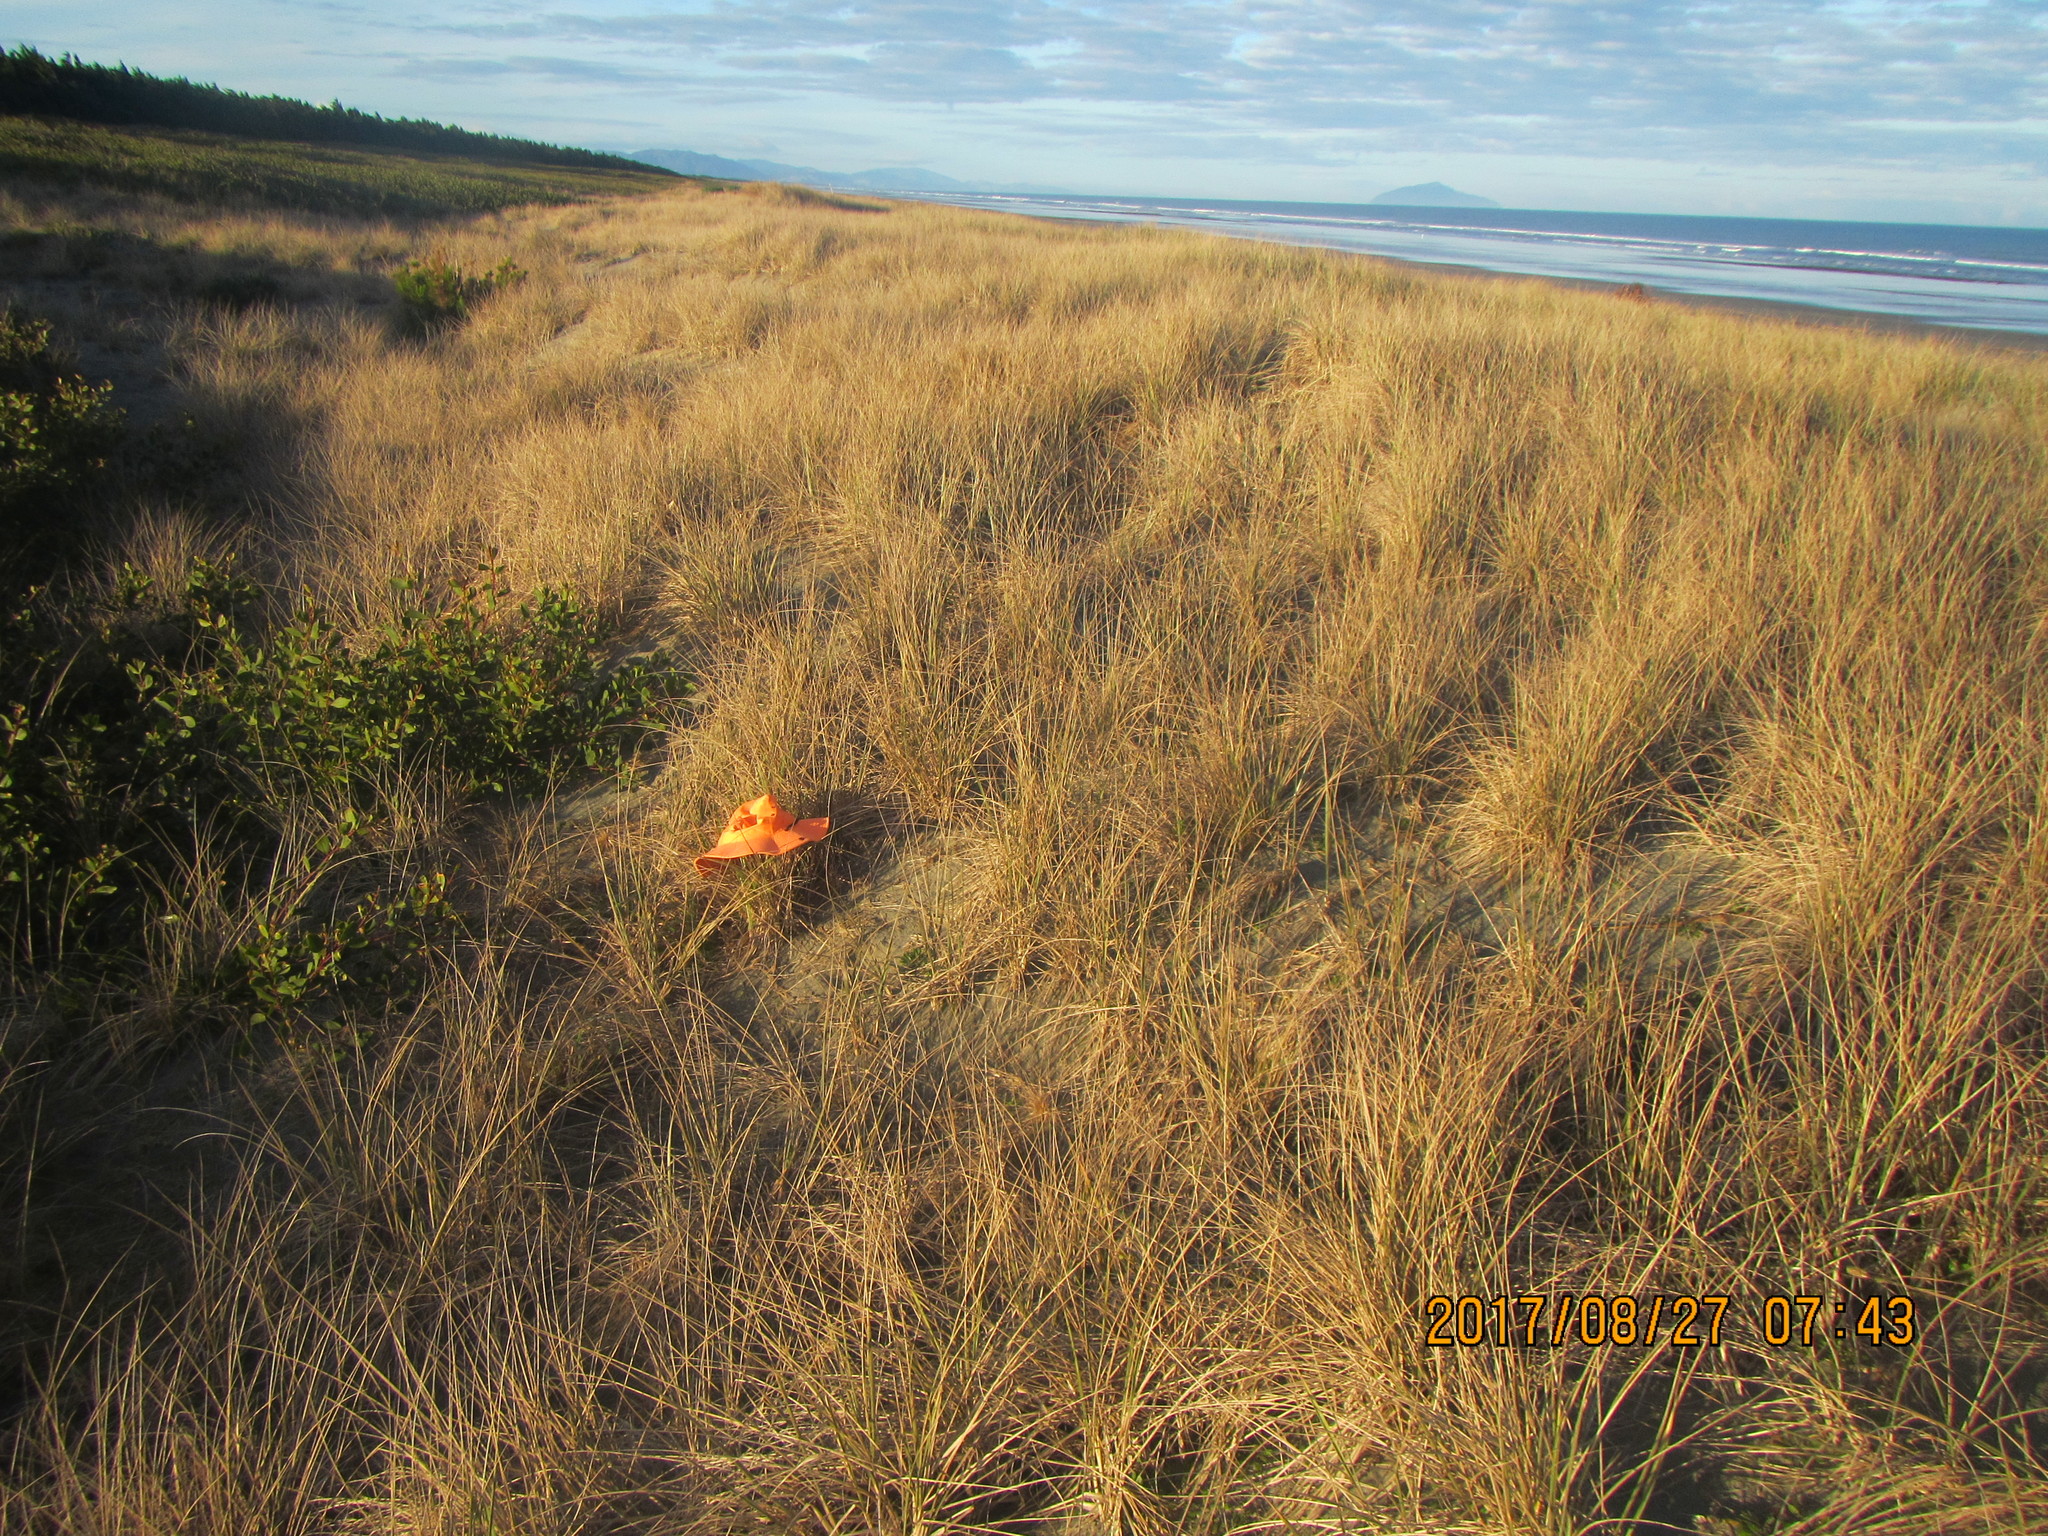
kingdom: Animalia
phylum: Arthropoda
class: Arachnida
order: Araneae
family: Theridiidae
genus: Steatoda
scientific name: Steatoda capensis
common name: Cobweb weaver
